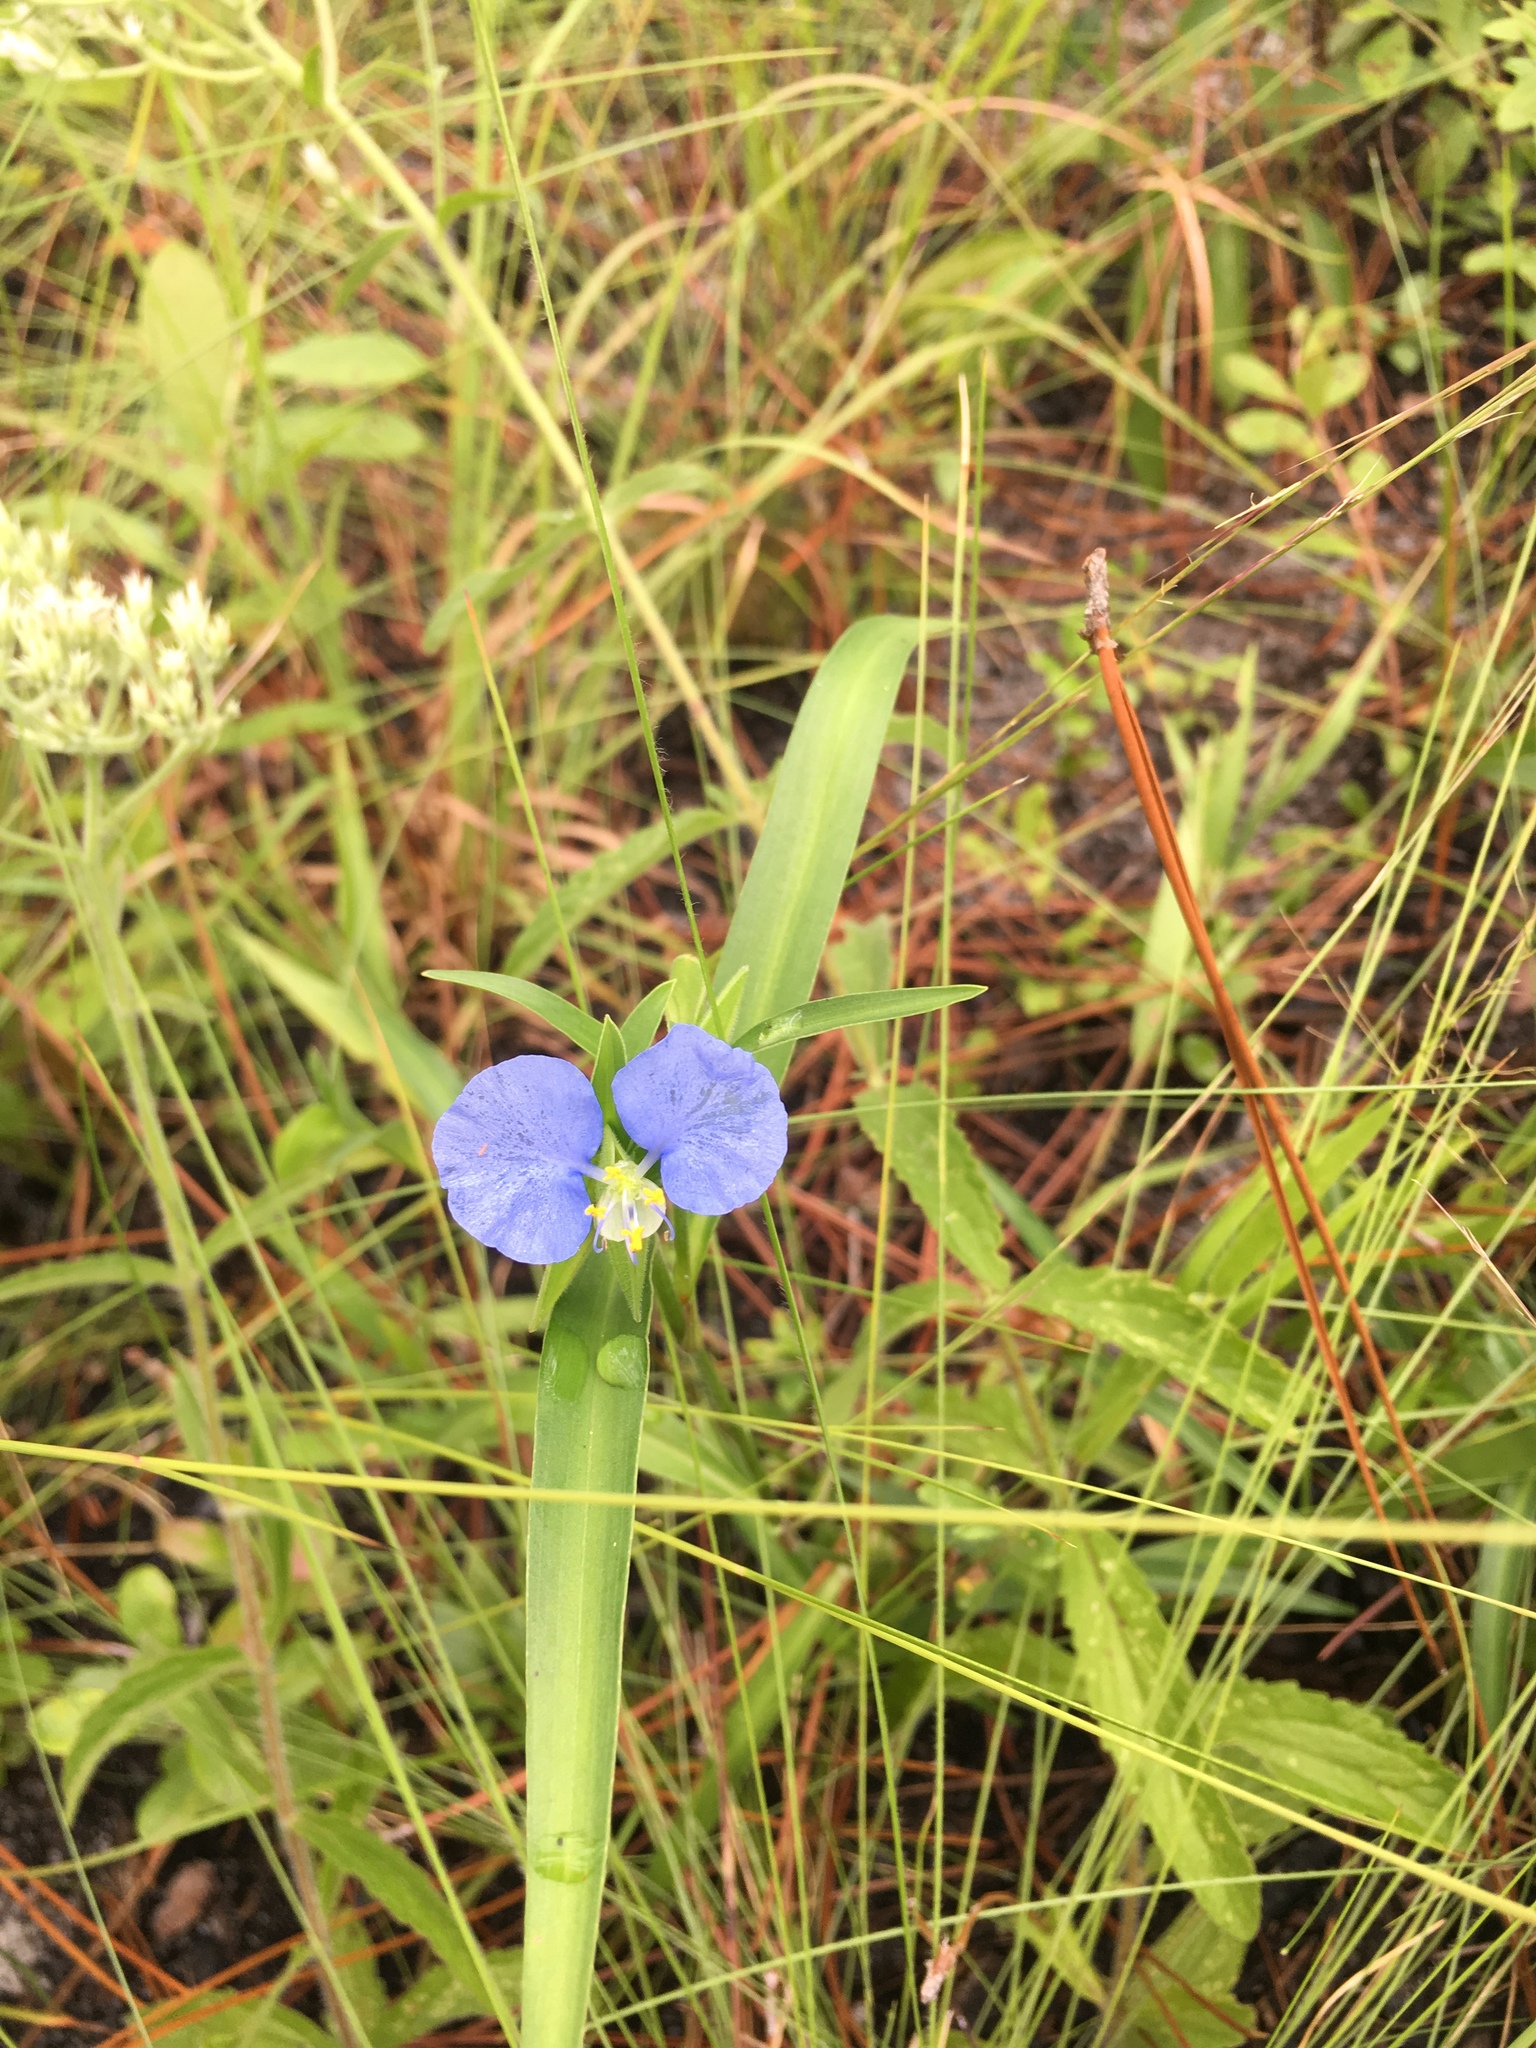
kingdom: Plantae
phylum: Tracheophyta
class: Liliopsida
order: Commelinales
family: Commelinaceae
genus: Commelina
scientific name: Commelina erecta
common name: Blousel blommetjie
